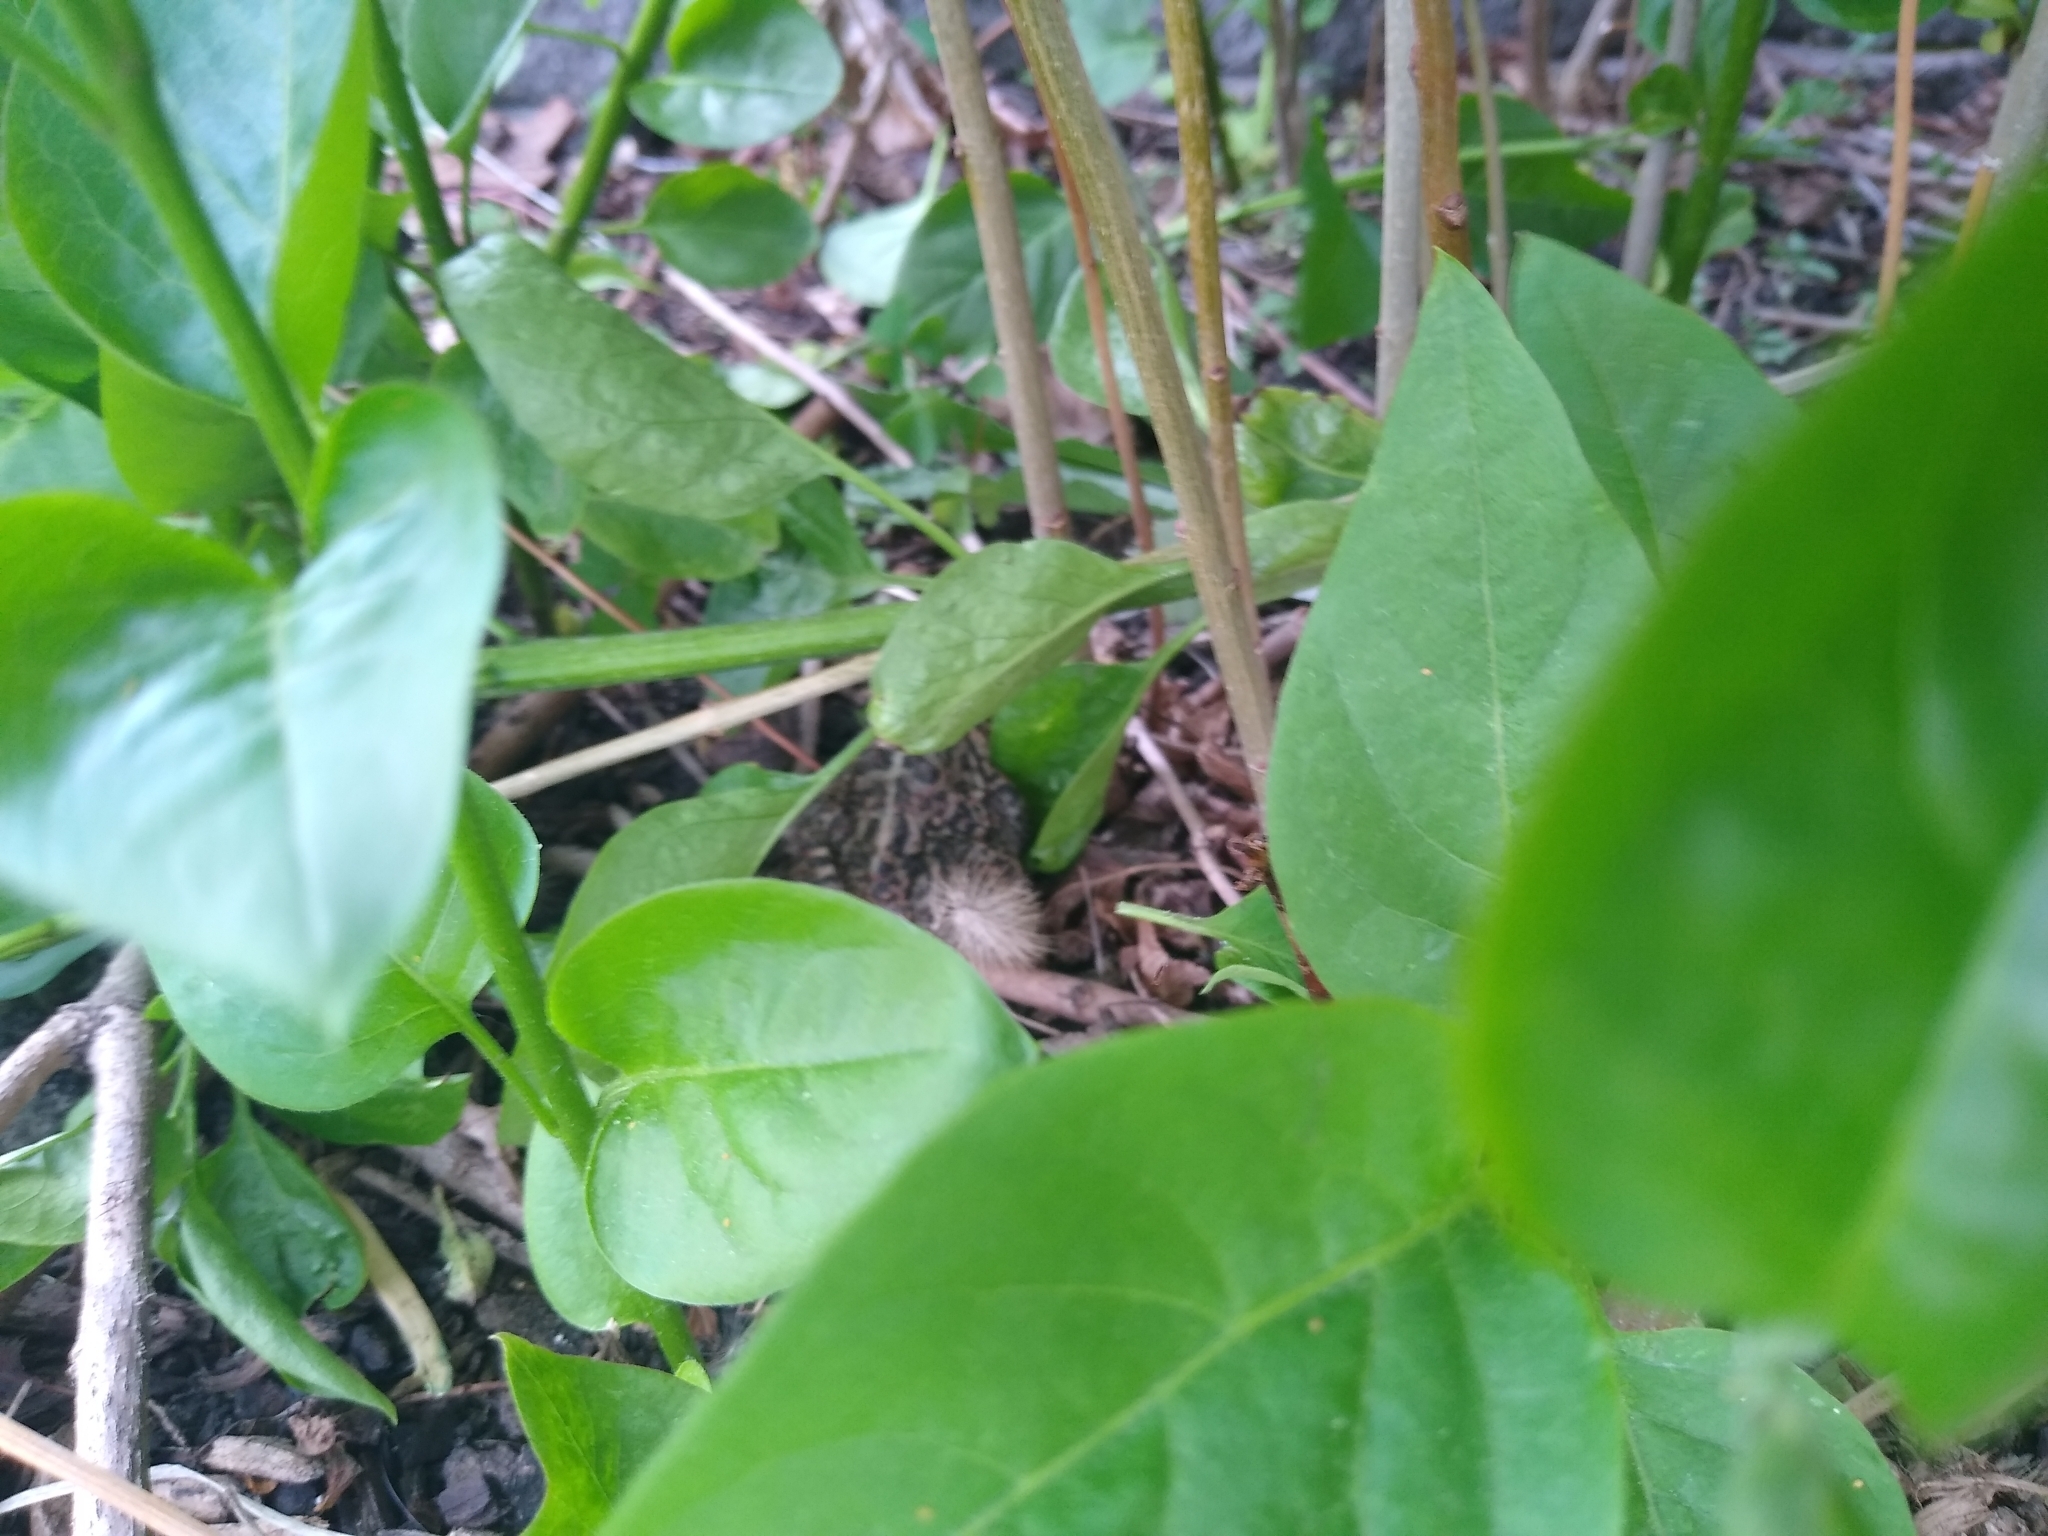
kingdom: Animalia
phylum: Chordata
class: Amphibia
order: Anura
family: Bufonidae
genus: Anaxyrus
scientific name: Anaxyrus americanus
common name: American toad
